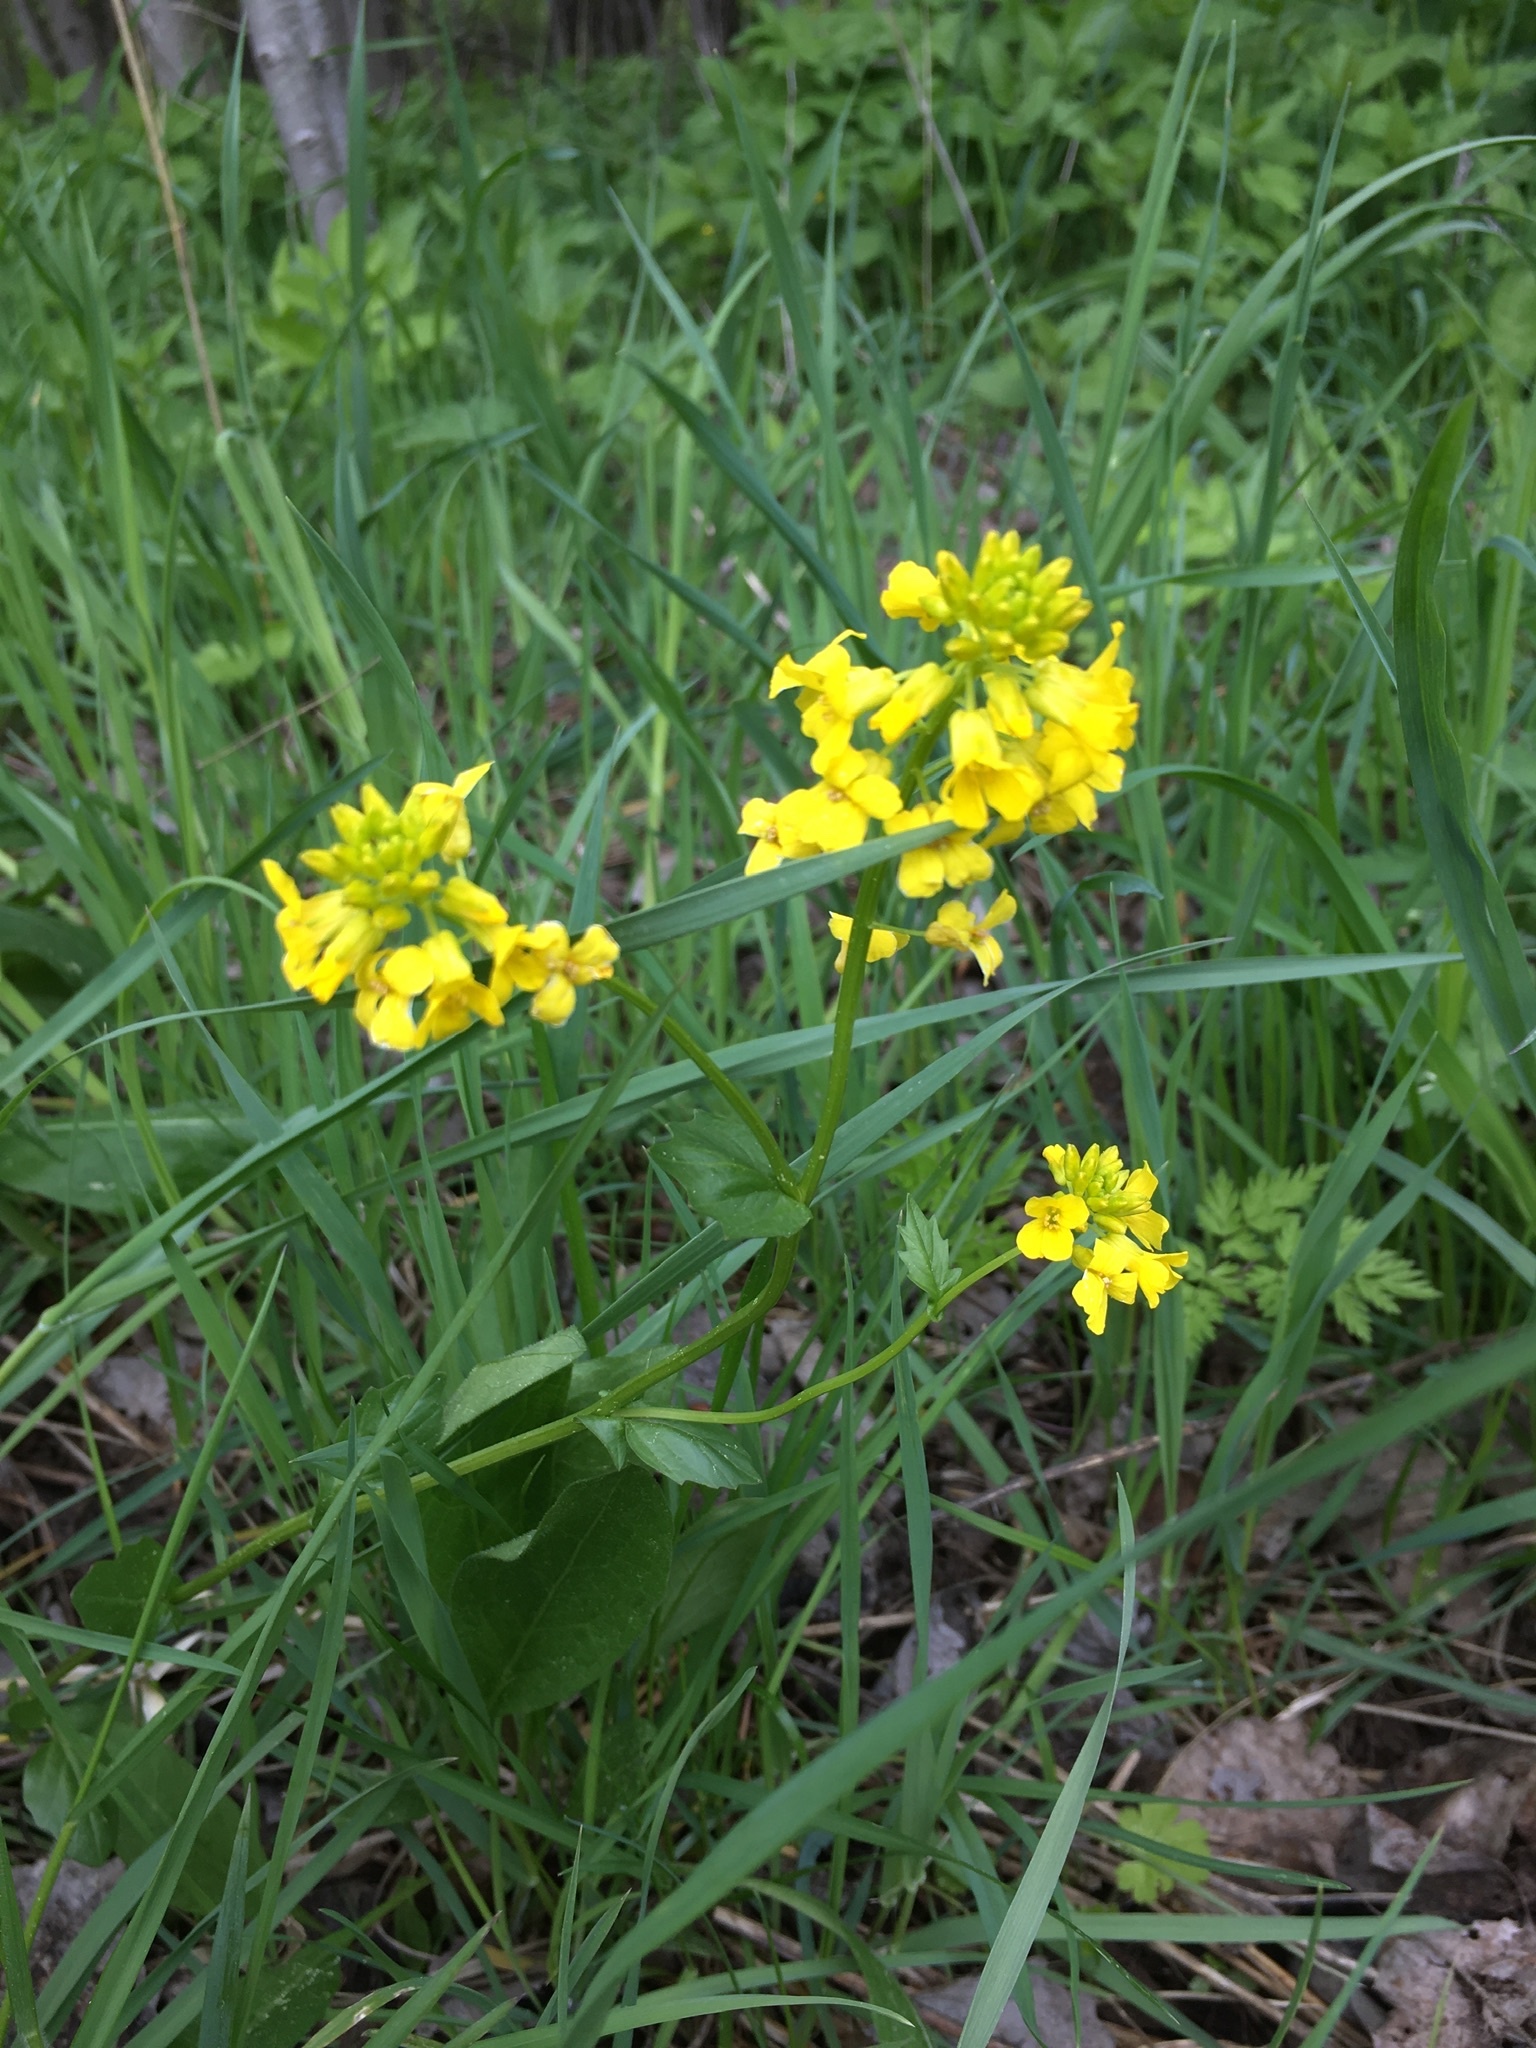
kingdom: Plantae
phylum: Tracheophyta
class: Magnoliopsida
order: Brassicales
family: Brassicaceae
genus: Barbarea
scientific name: Barbarea vulgaris
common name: Cressy-greens
